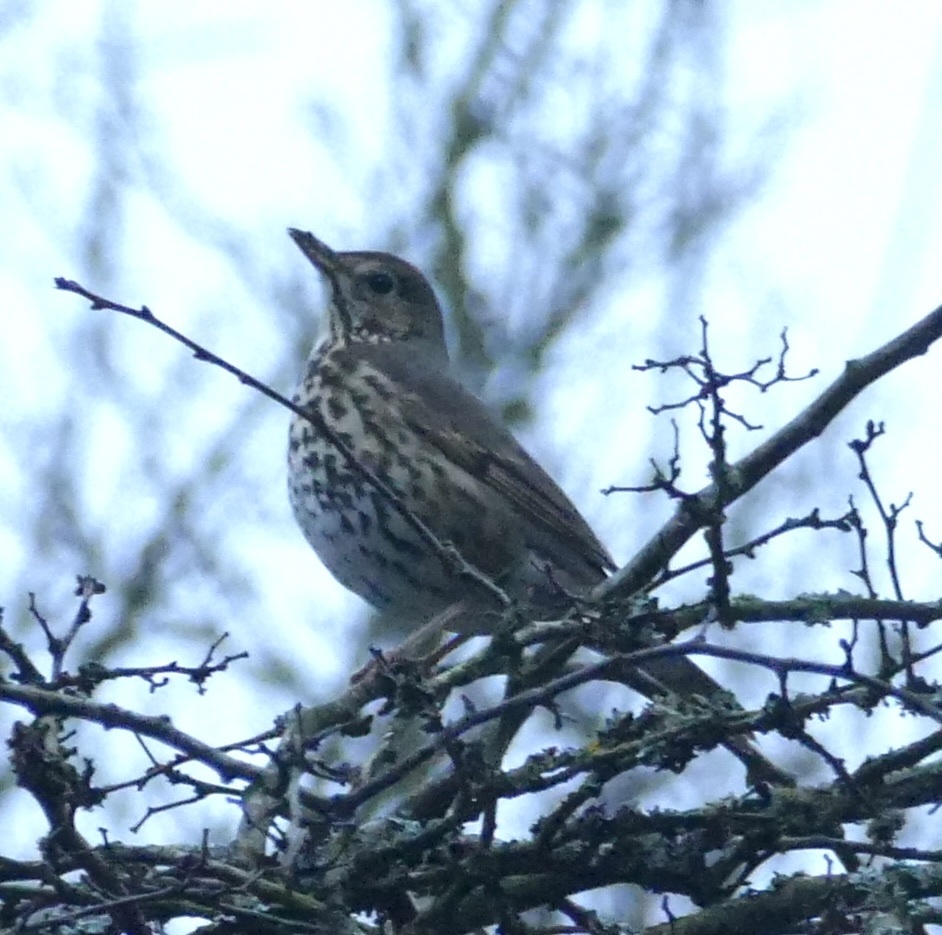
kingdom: Animalia
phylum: Chordata
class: Aves
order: Passeriformes
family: Turdidae
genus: Turdus
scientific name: Turdus philomelos
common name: Song thrush
